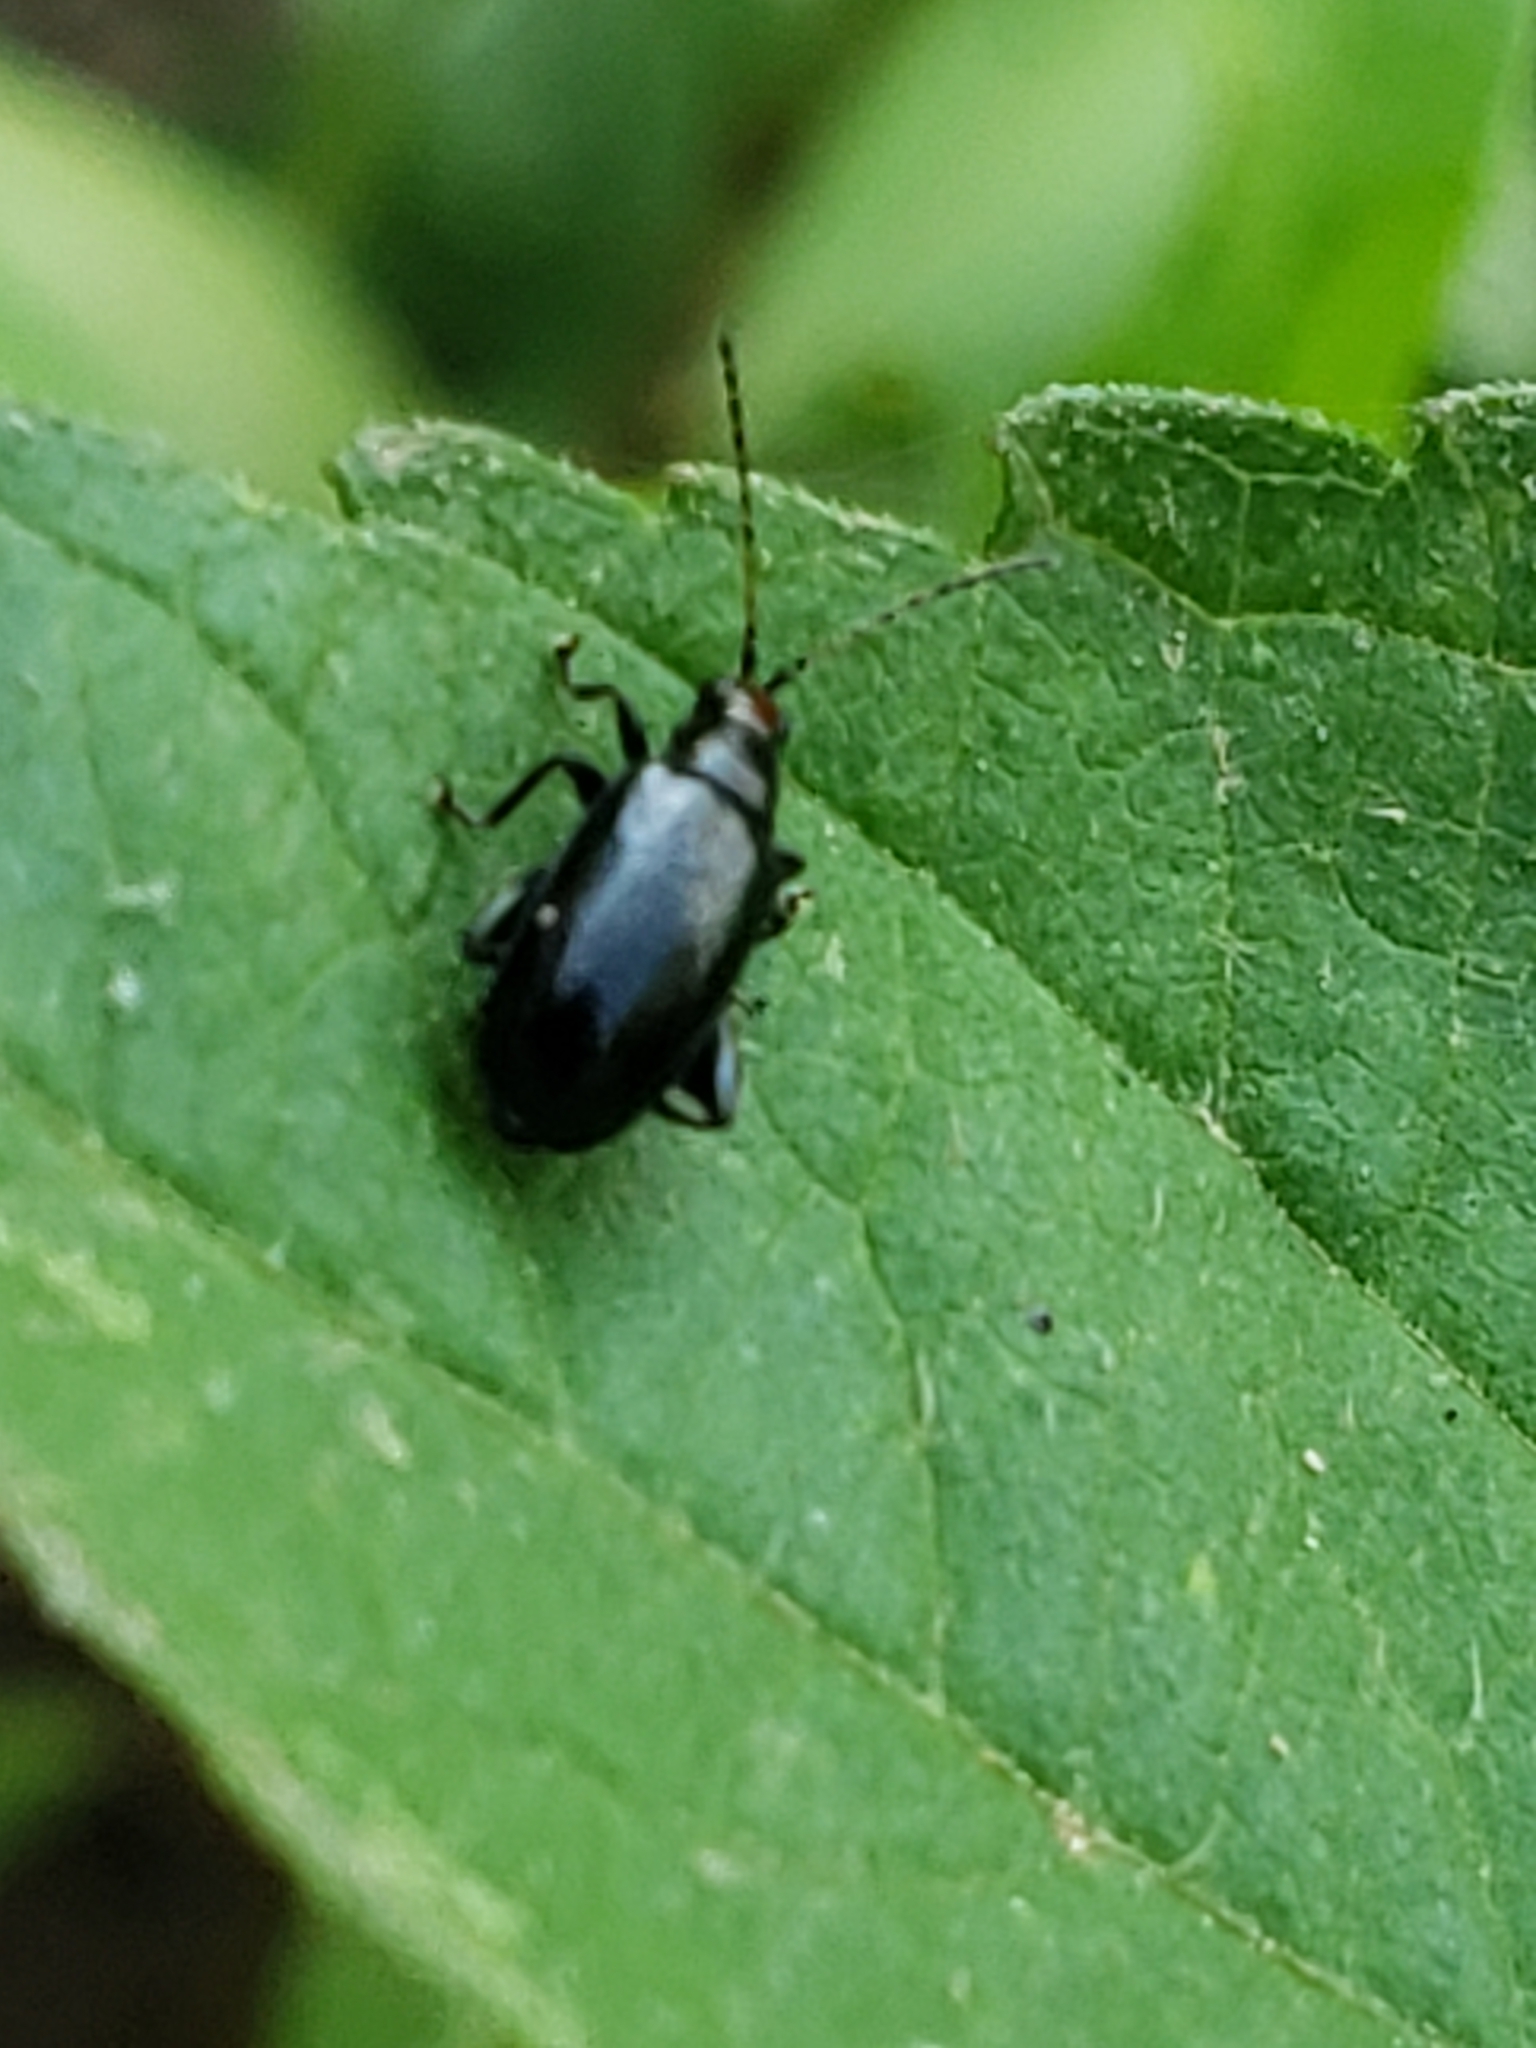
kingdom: Animalia
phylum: Arthropoda
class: Insecta
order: Coleoptera
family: Chrysomelidae
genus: Systena
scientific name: Systena frontalis
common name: Red-headed flea beetle
